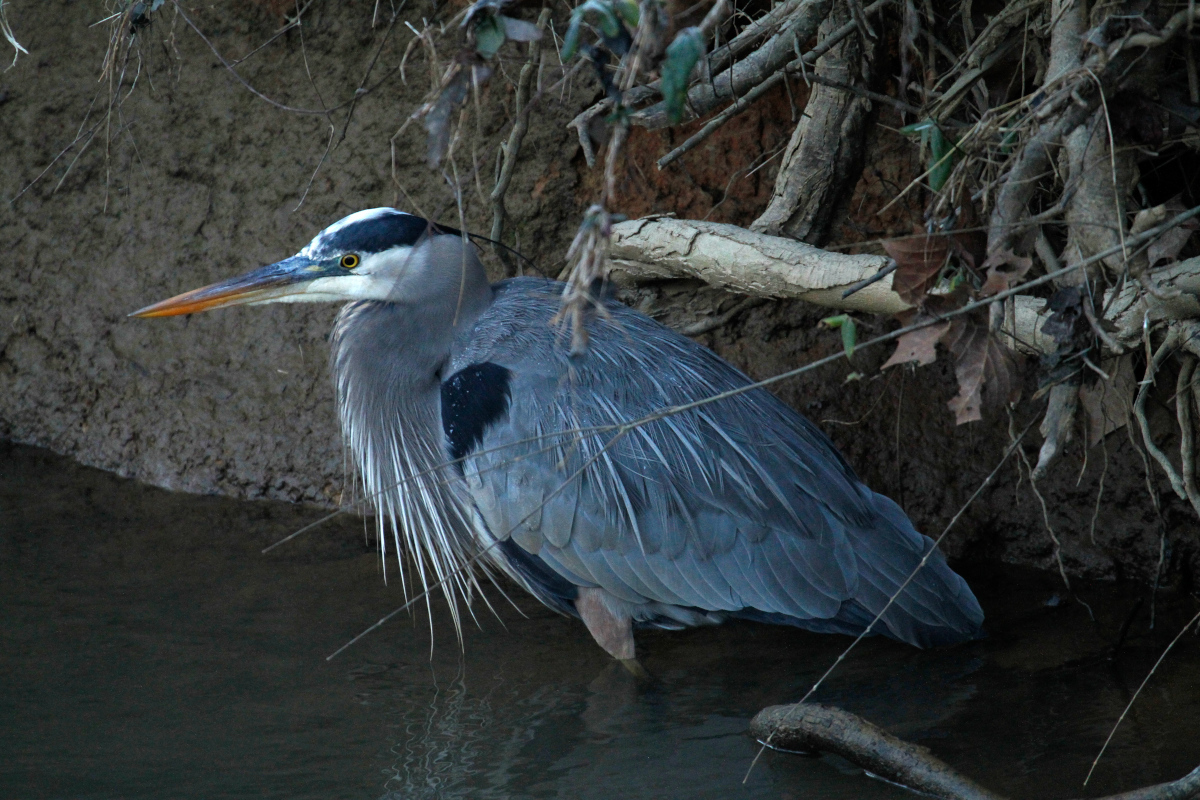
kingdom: Animalia
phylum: Chordata
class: Aves
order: Pelecaniformes
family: Ardeidae
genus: Ardea
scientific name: Ardea herodias
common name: Great blue heron
